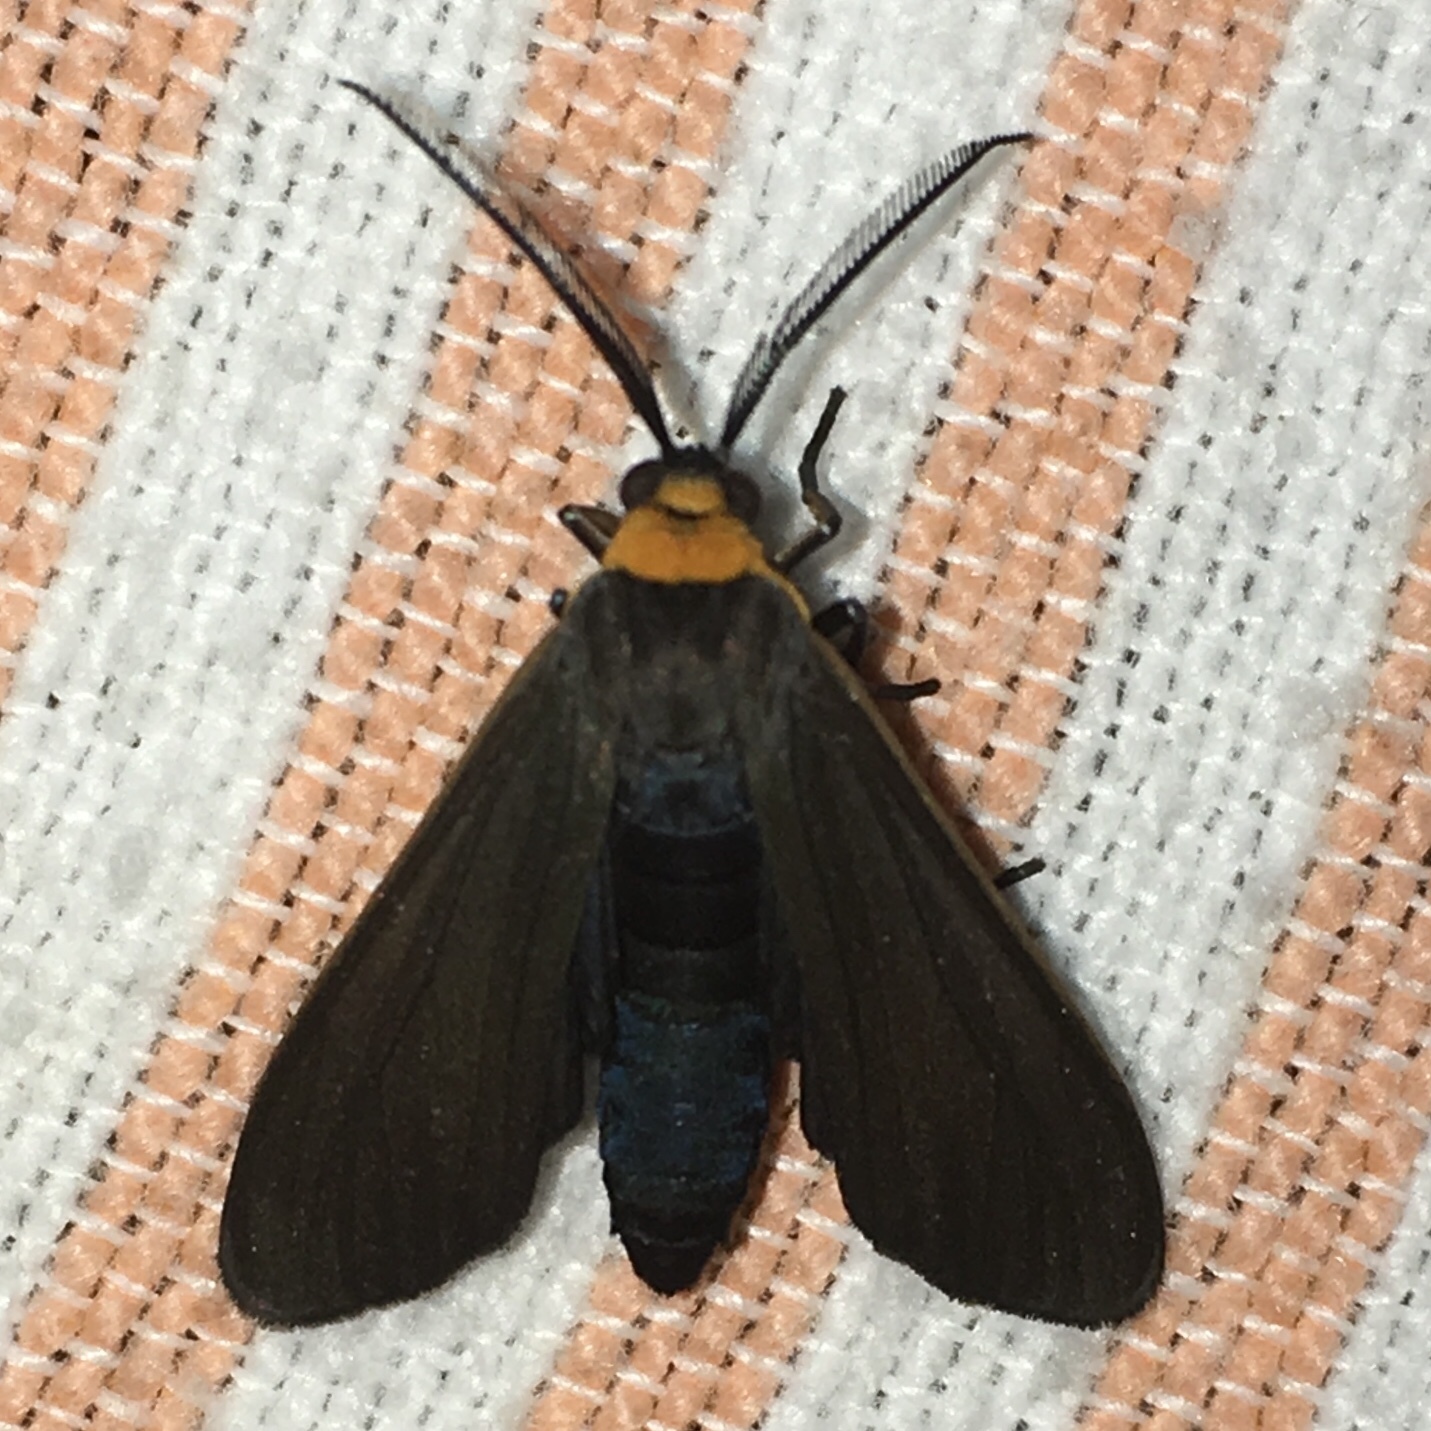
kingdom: Animalia
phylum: Arthropoda
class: Insecta
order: Lepidoptera
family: Erebidae
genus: Cisseps
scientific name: Cisseps fulvicollis
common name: Yellow-collared scape moth
